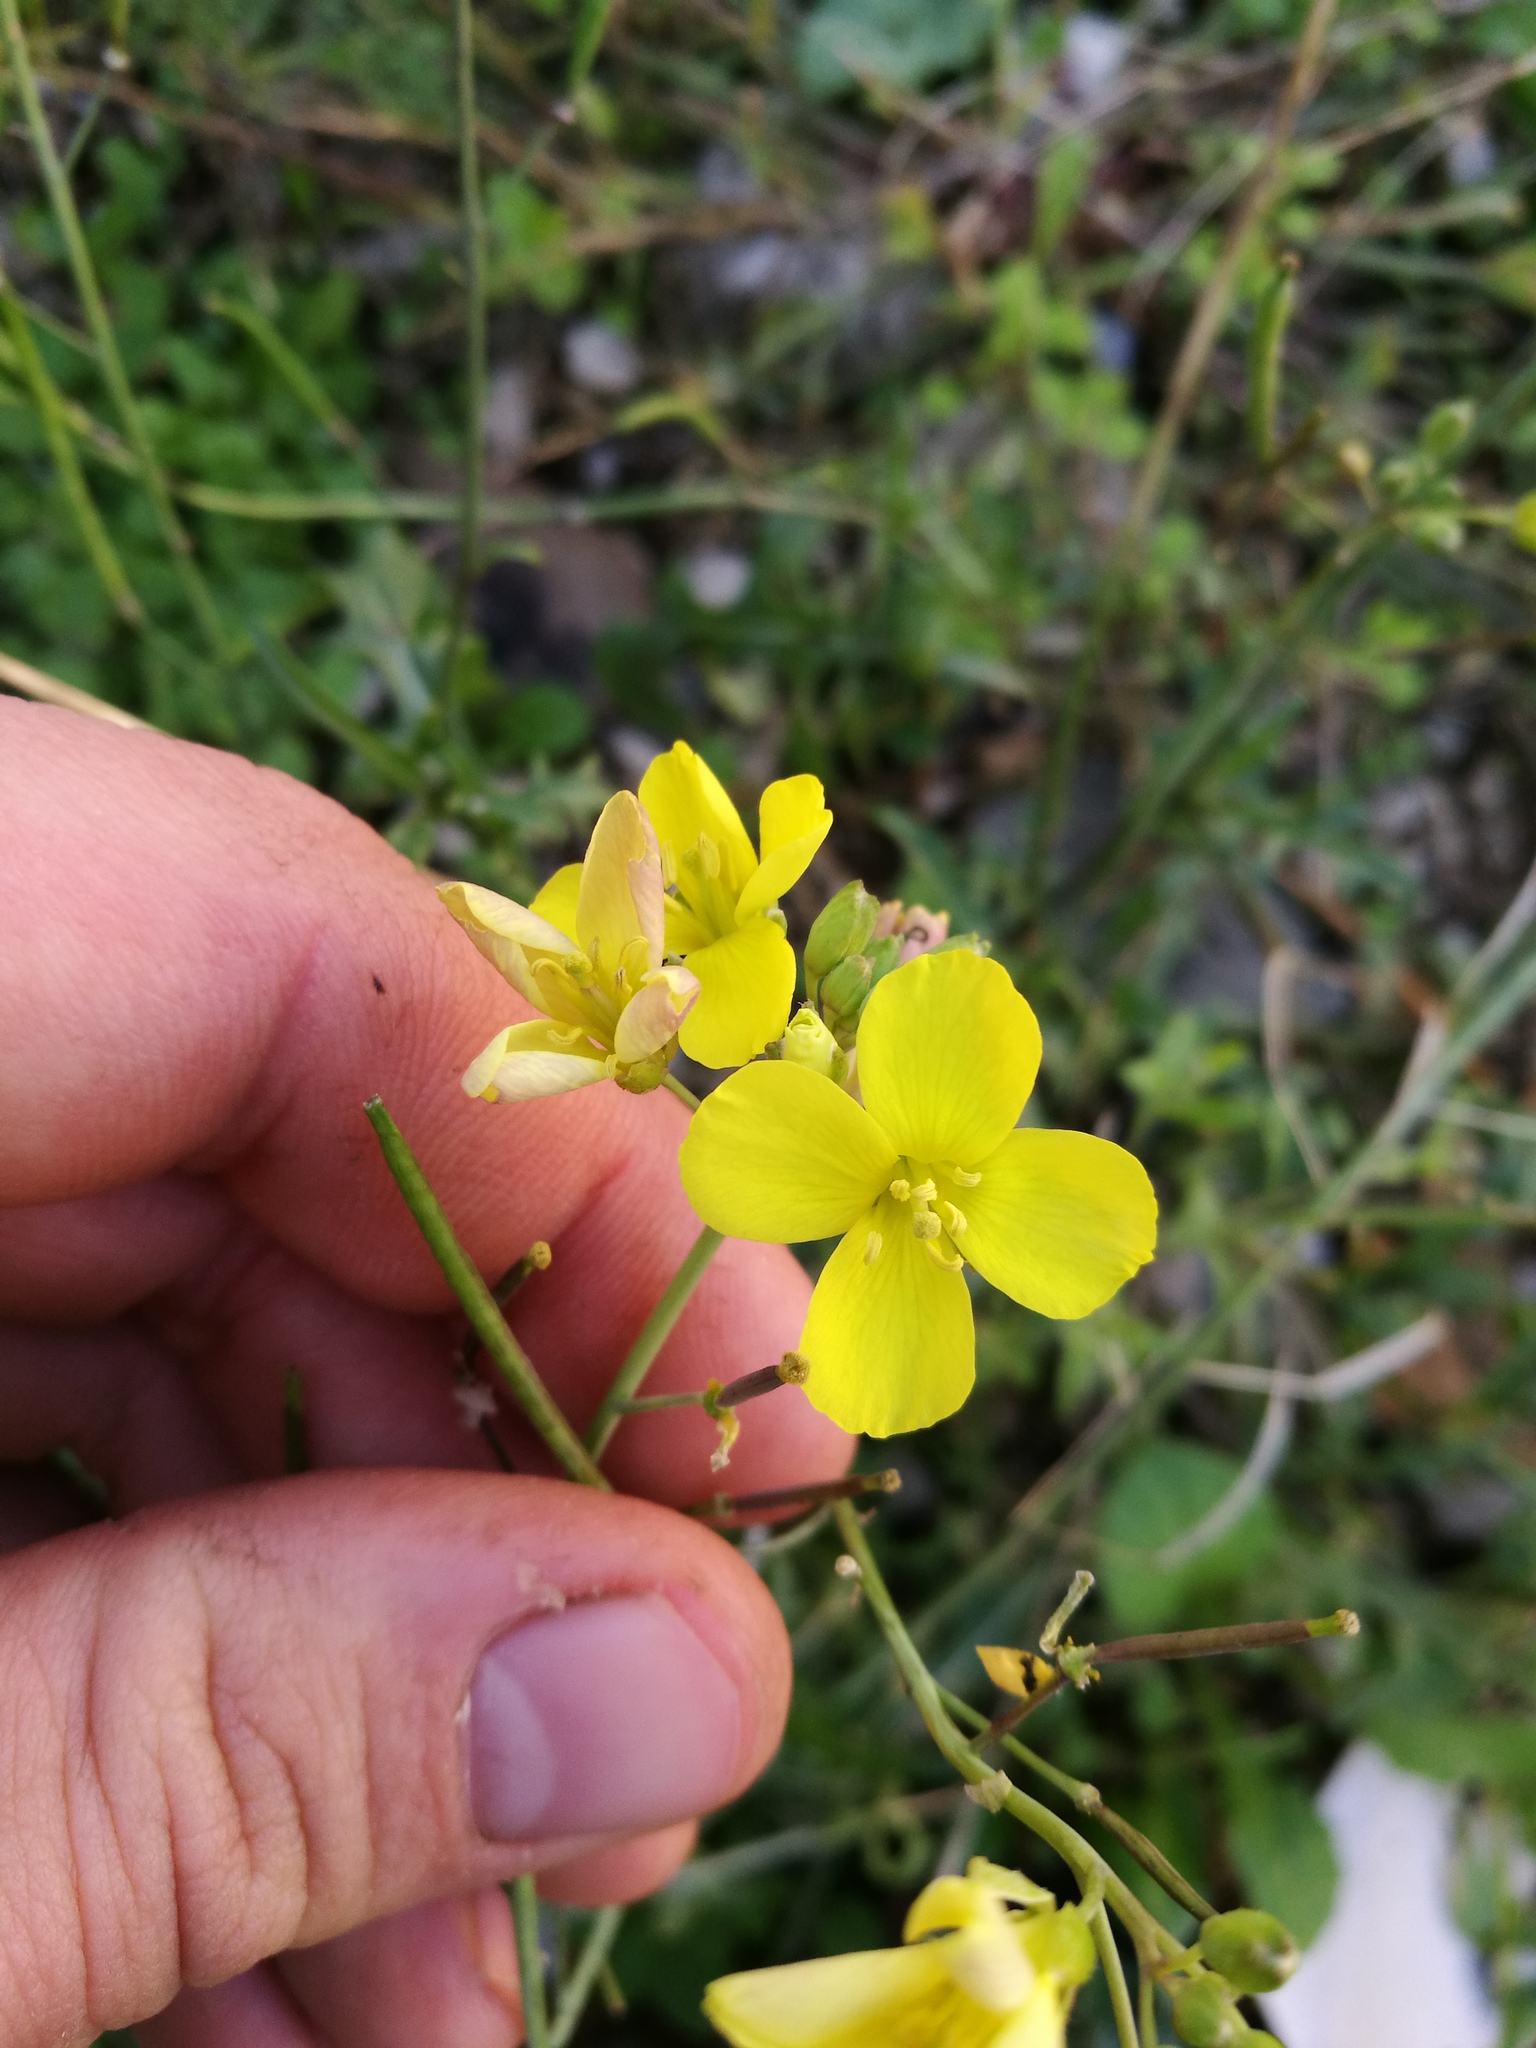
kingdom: Plantae
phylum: Tracheophyta
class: Magnoliopsida
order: Brassicales
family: Brassicaceae
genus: Diplotaxis
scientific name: Diplotaxis tenuifolia
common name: Perennial wall-rocket
